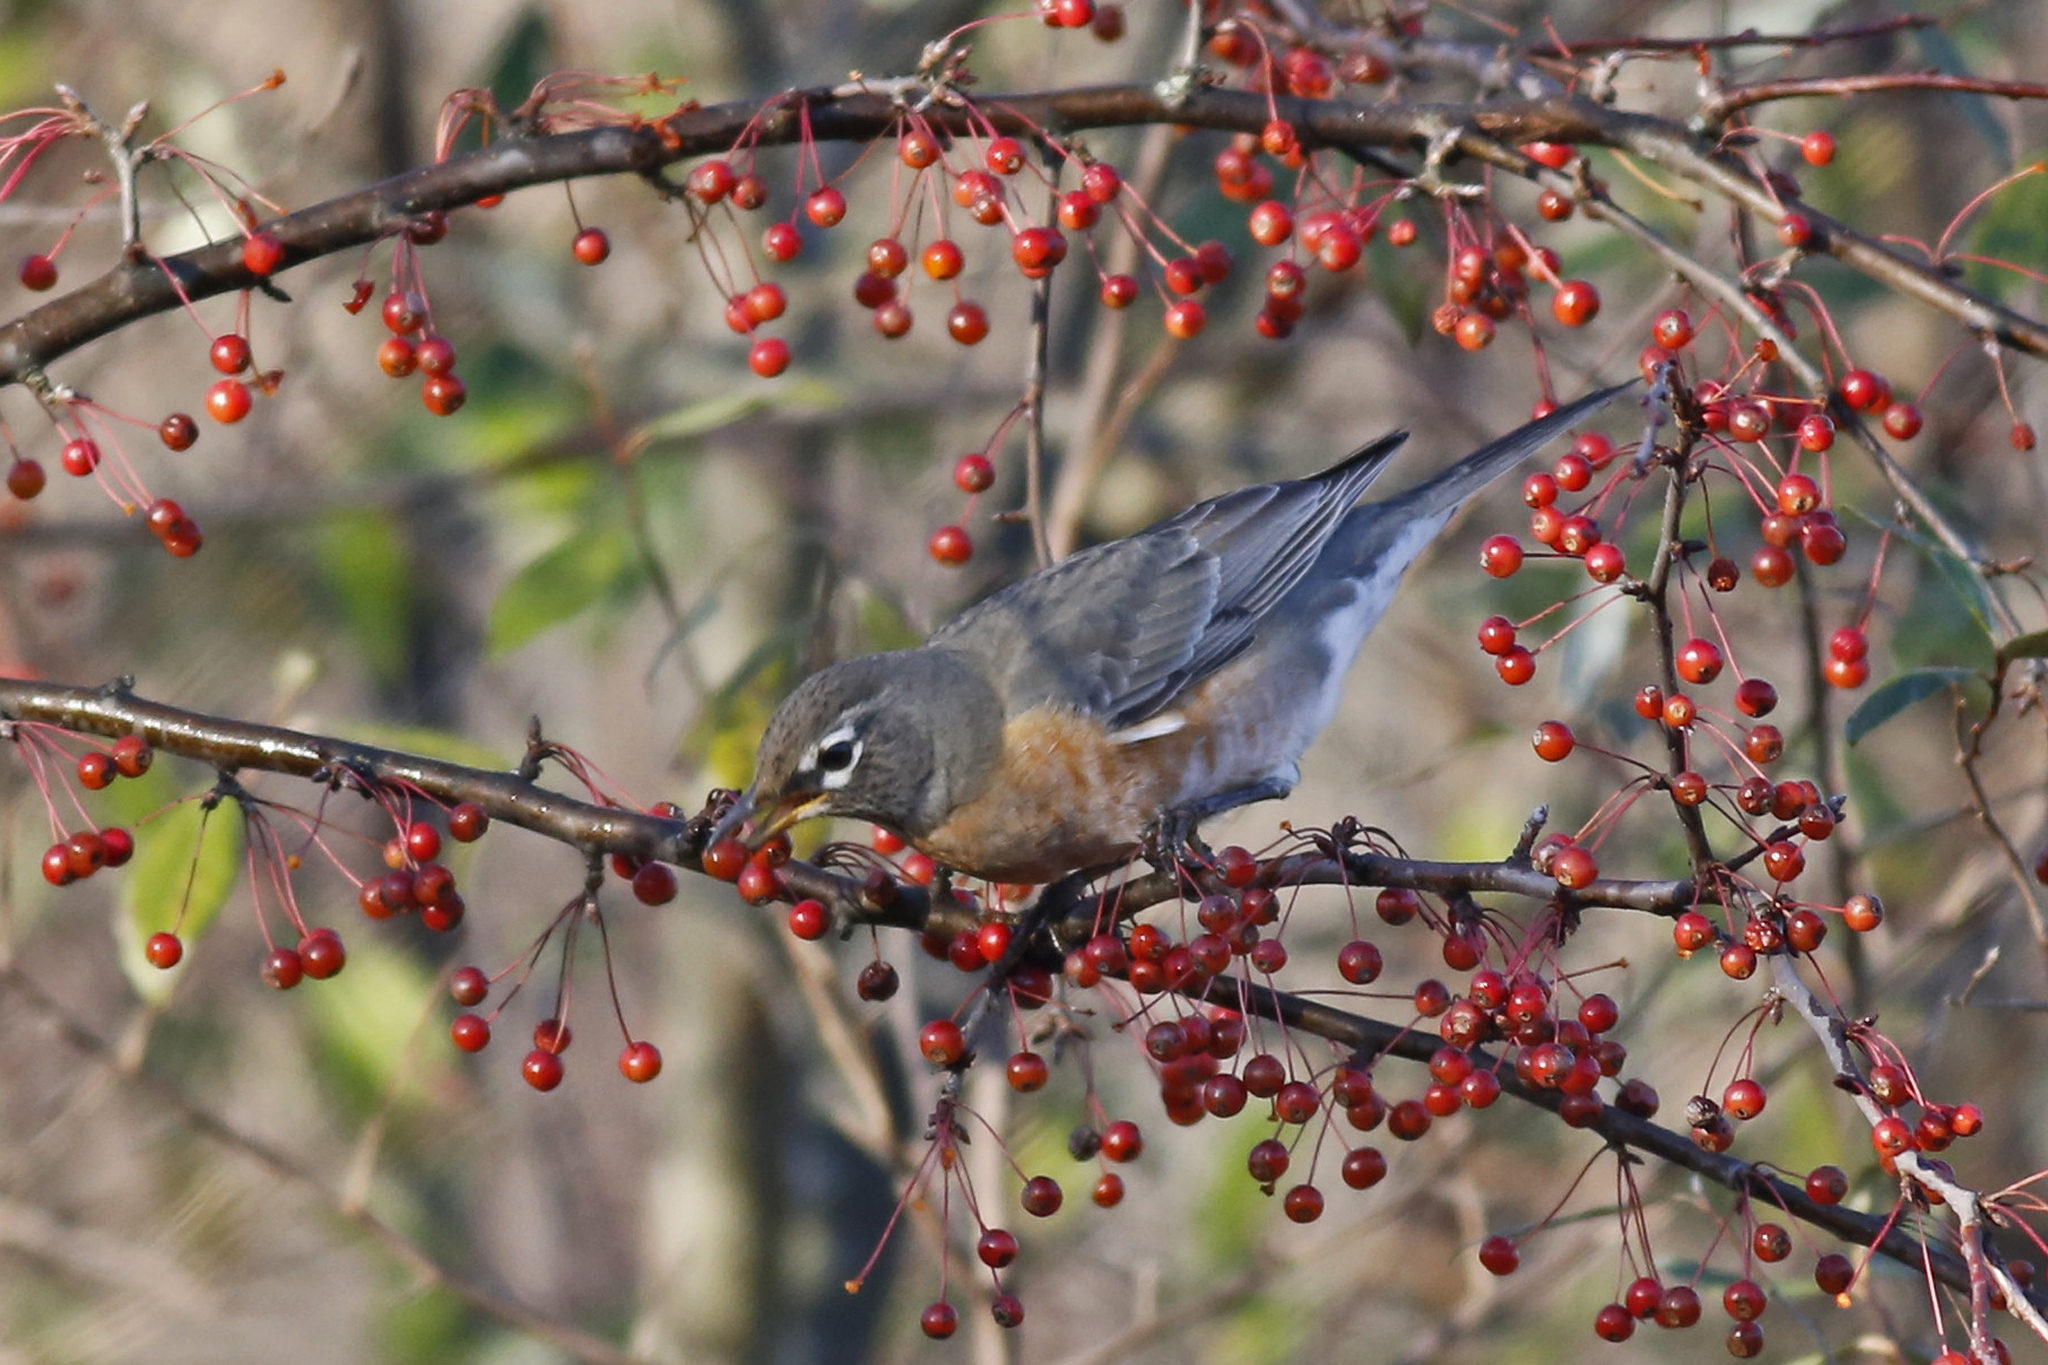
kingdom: Animalia
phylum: Chordata
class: Aves
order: Passeriformes
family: Turdidae
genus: Turdus
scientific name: Turdus migratorius
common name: American robin
